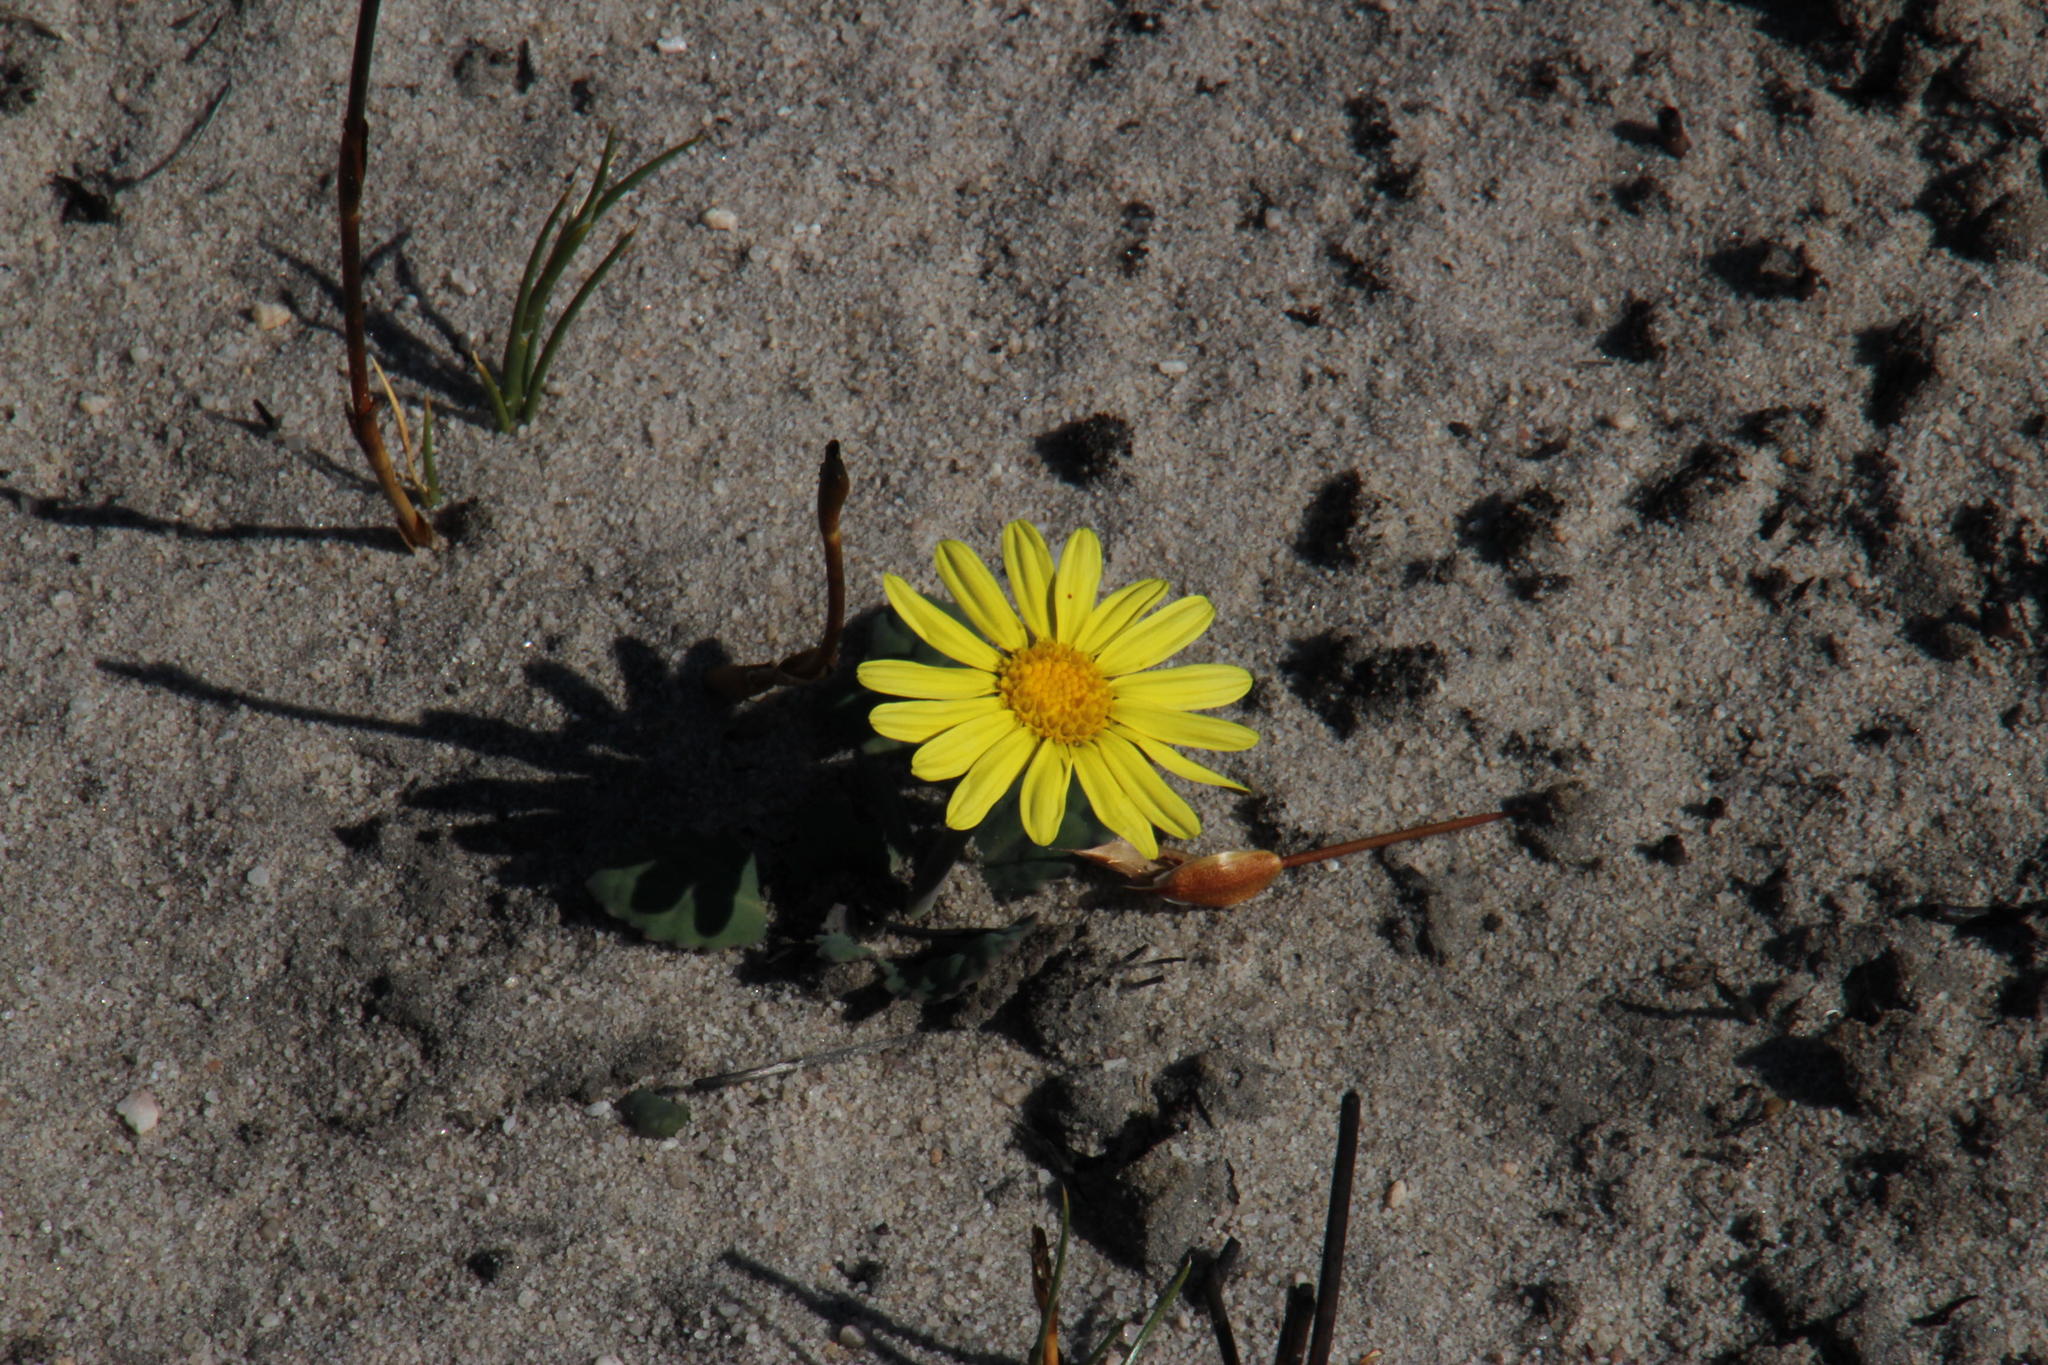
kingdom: Plantae
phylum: Tracheophyta
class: Magnoliopsida
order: Asterales
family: Asteraceae
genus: Othonna
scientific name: Othonna oleracea
